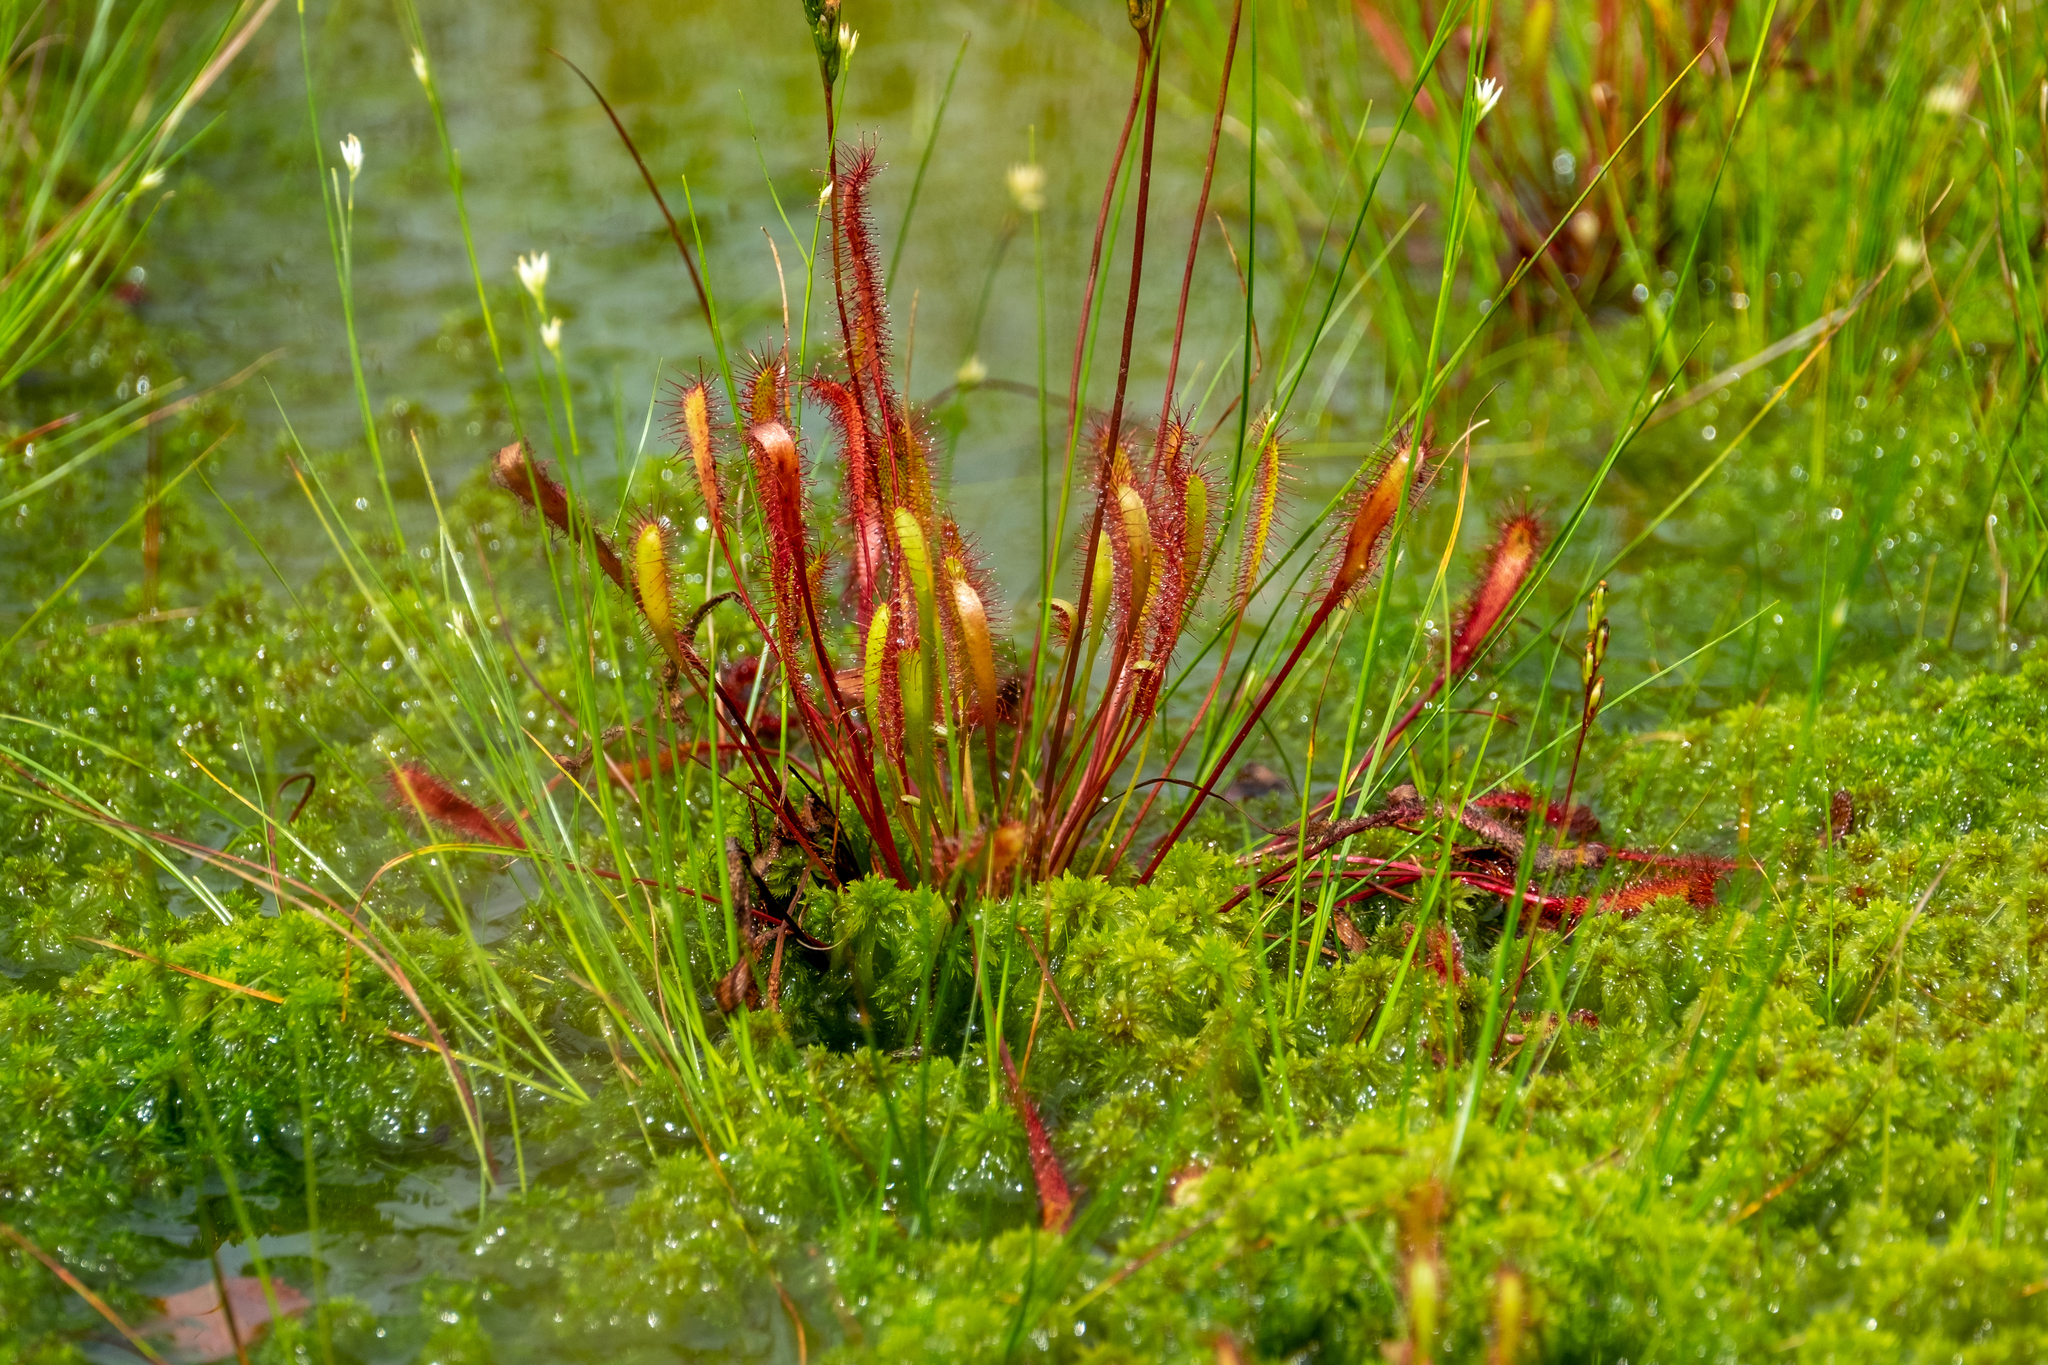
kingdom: Plantae
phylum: Tracheophyta
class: Magnoliopsida
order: Caryophyllales
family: Droseraceae
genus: Drosera
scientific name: Drosera anglica
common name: Great sundew
